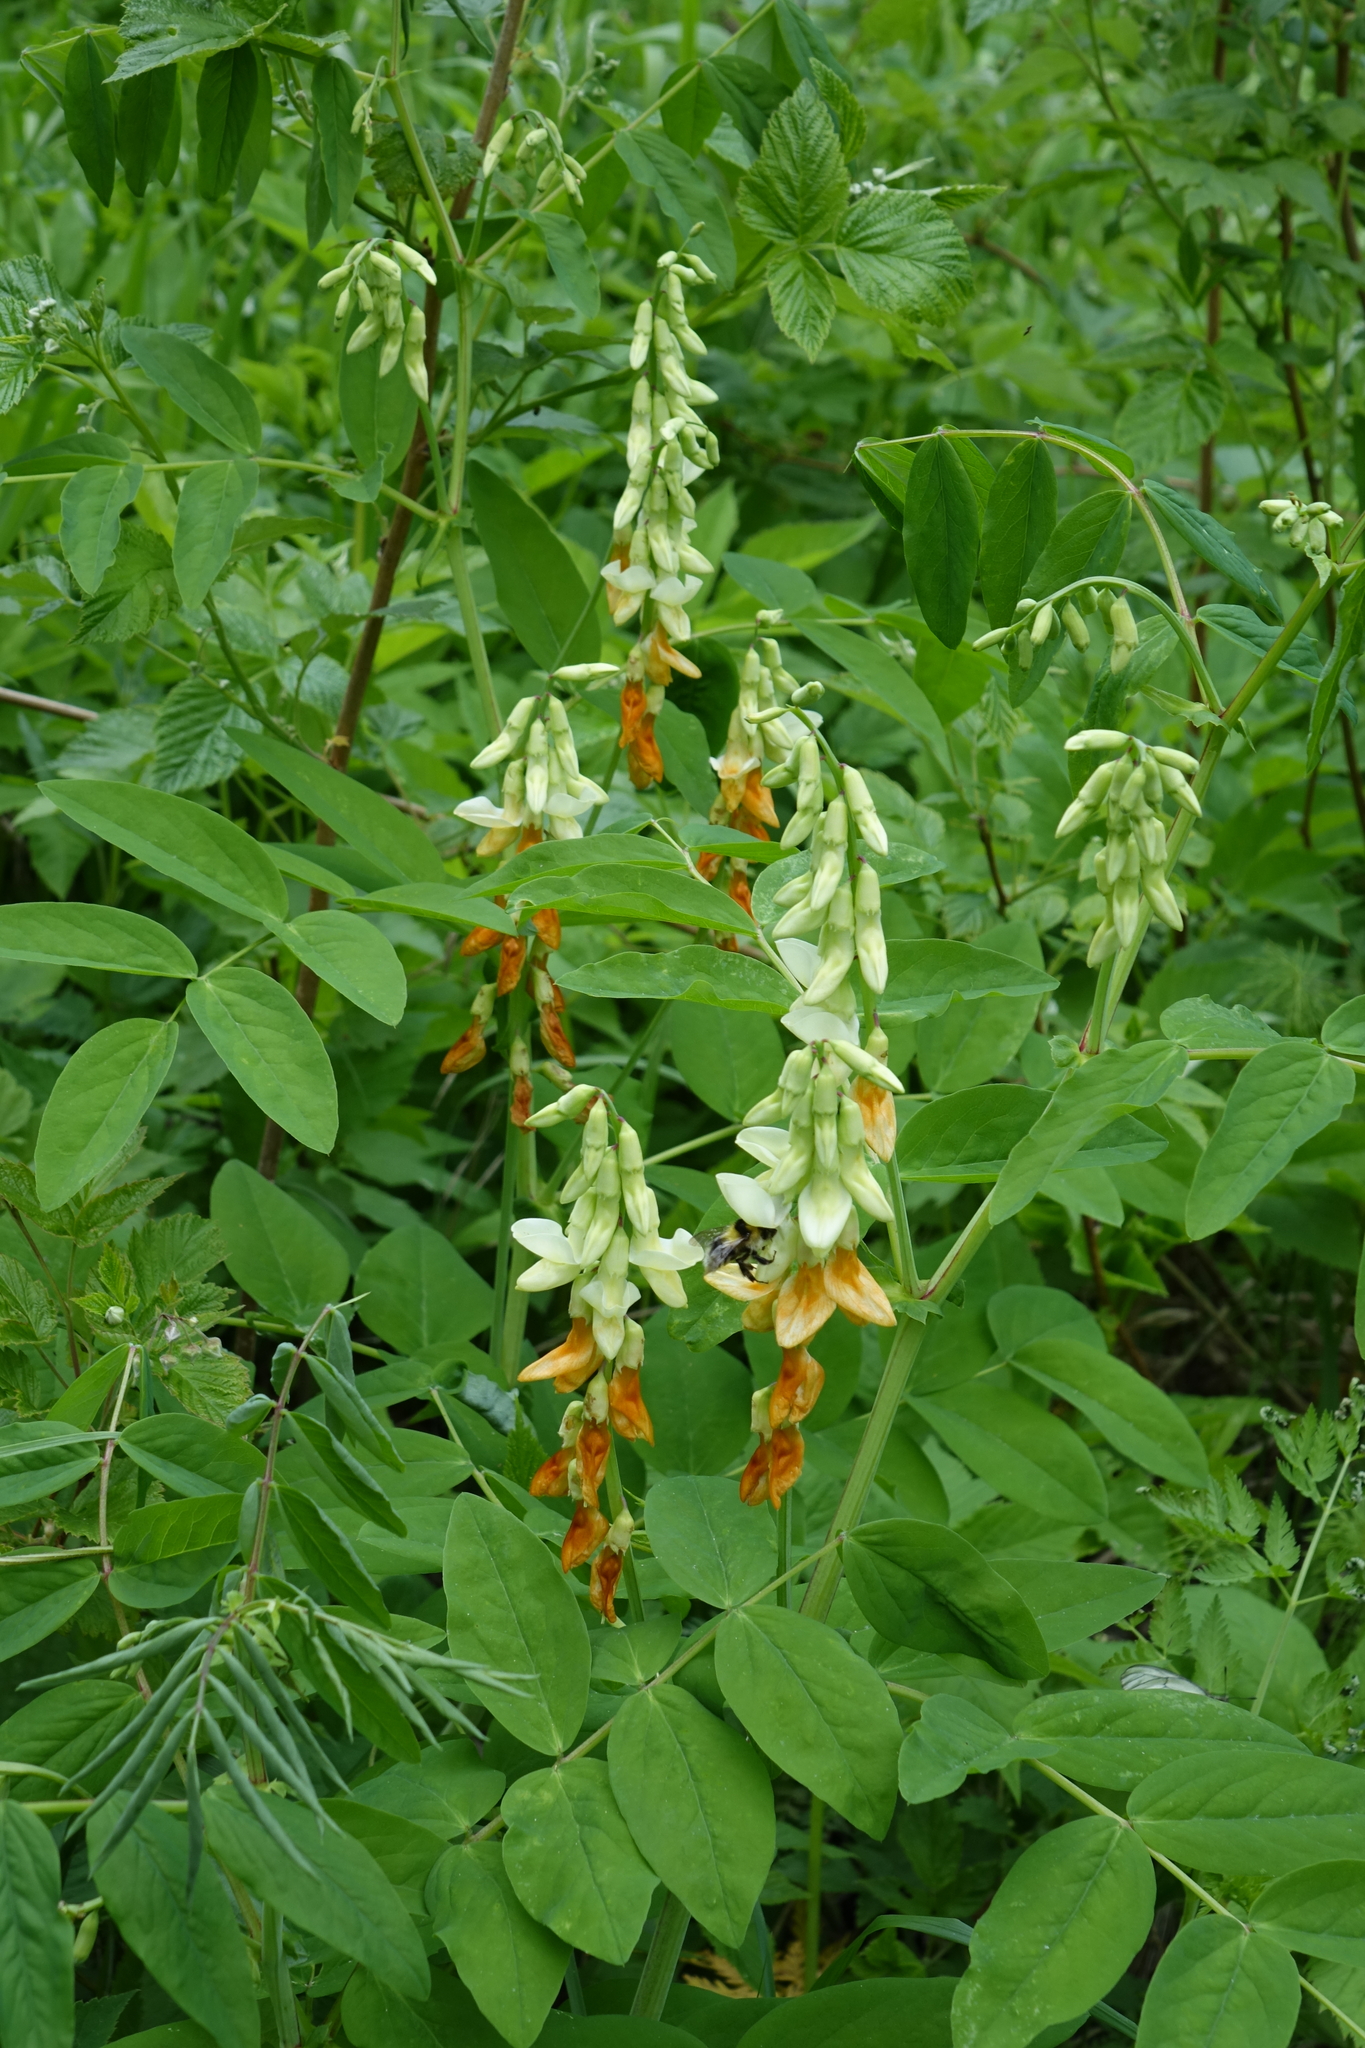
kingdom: Plantae
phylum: Tracheophyta
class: Magnoliopsida
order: Fabales
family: Fabaceae
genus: Lathyrus
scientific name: Lathyrus gmelinii
